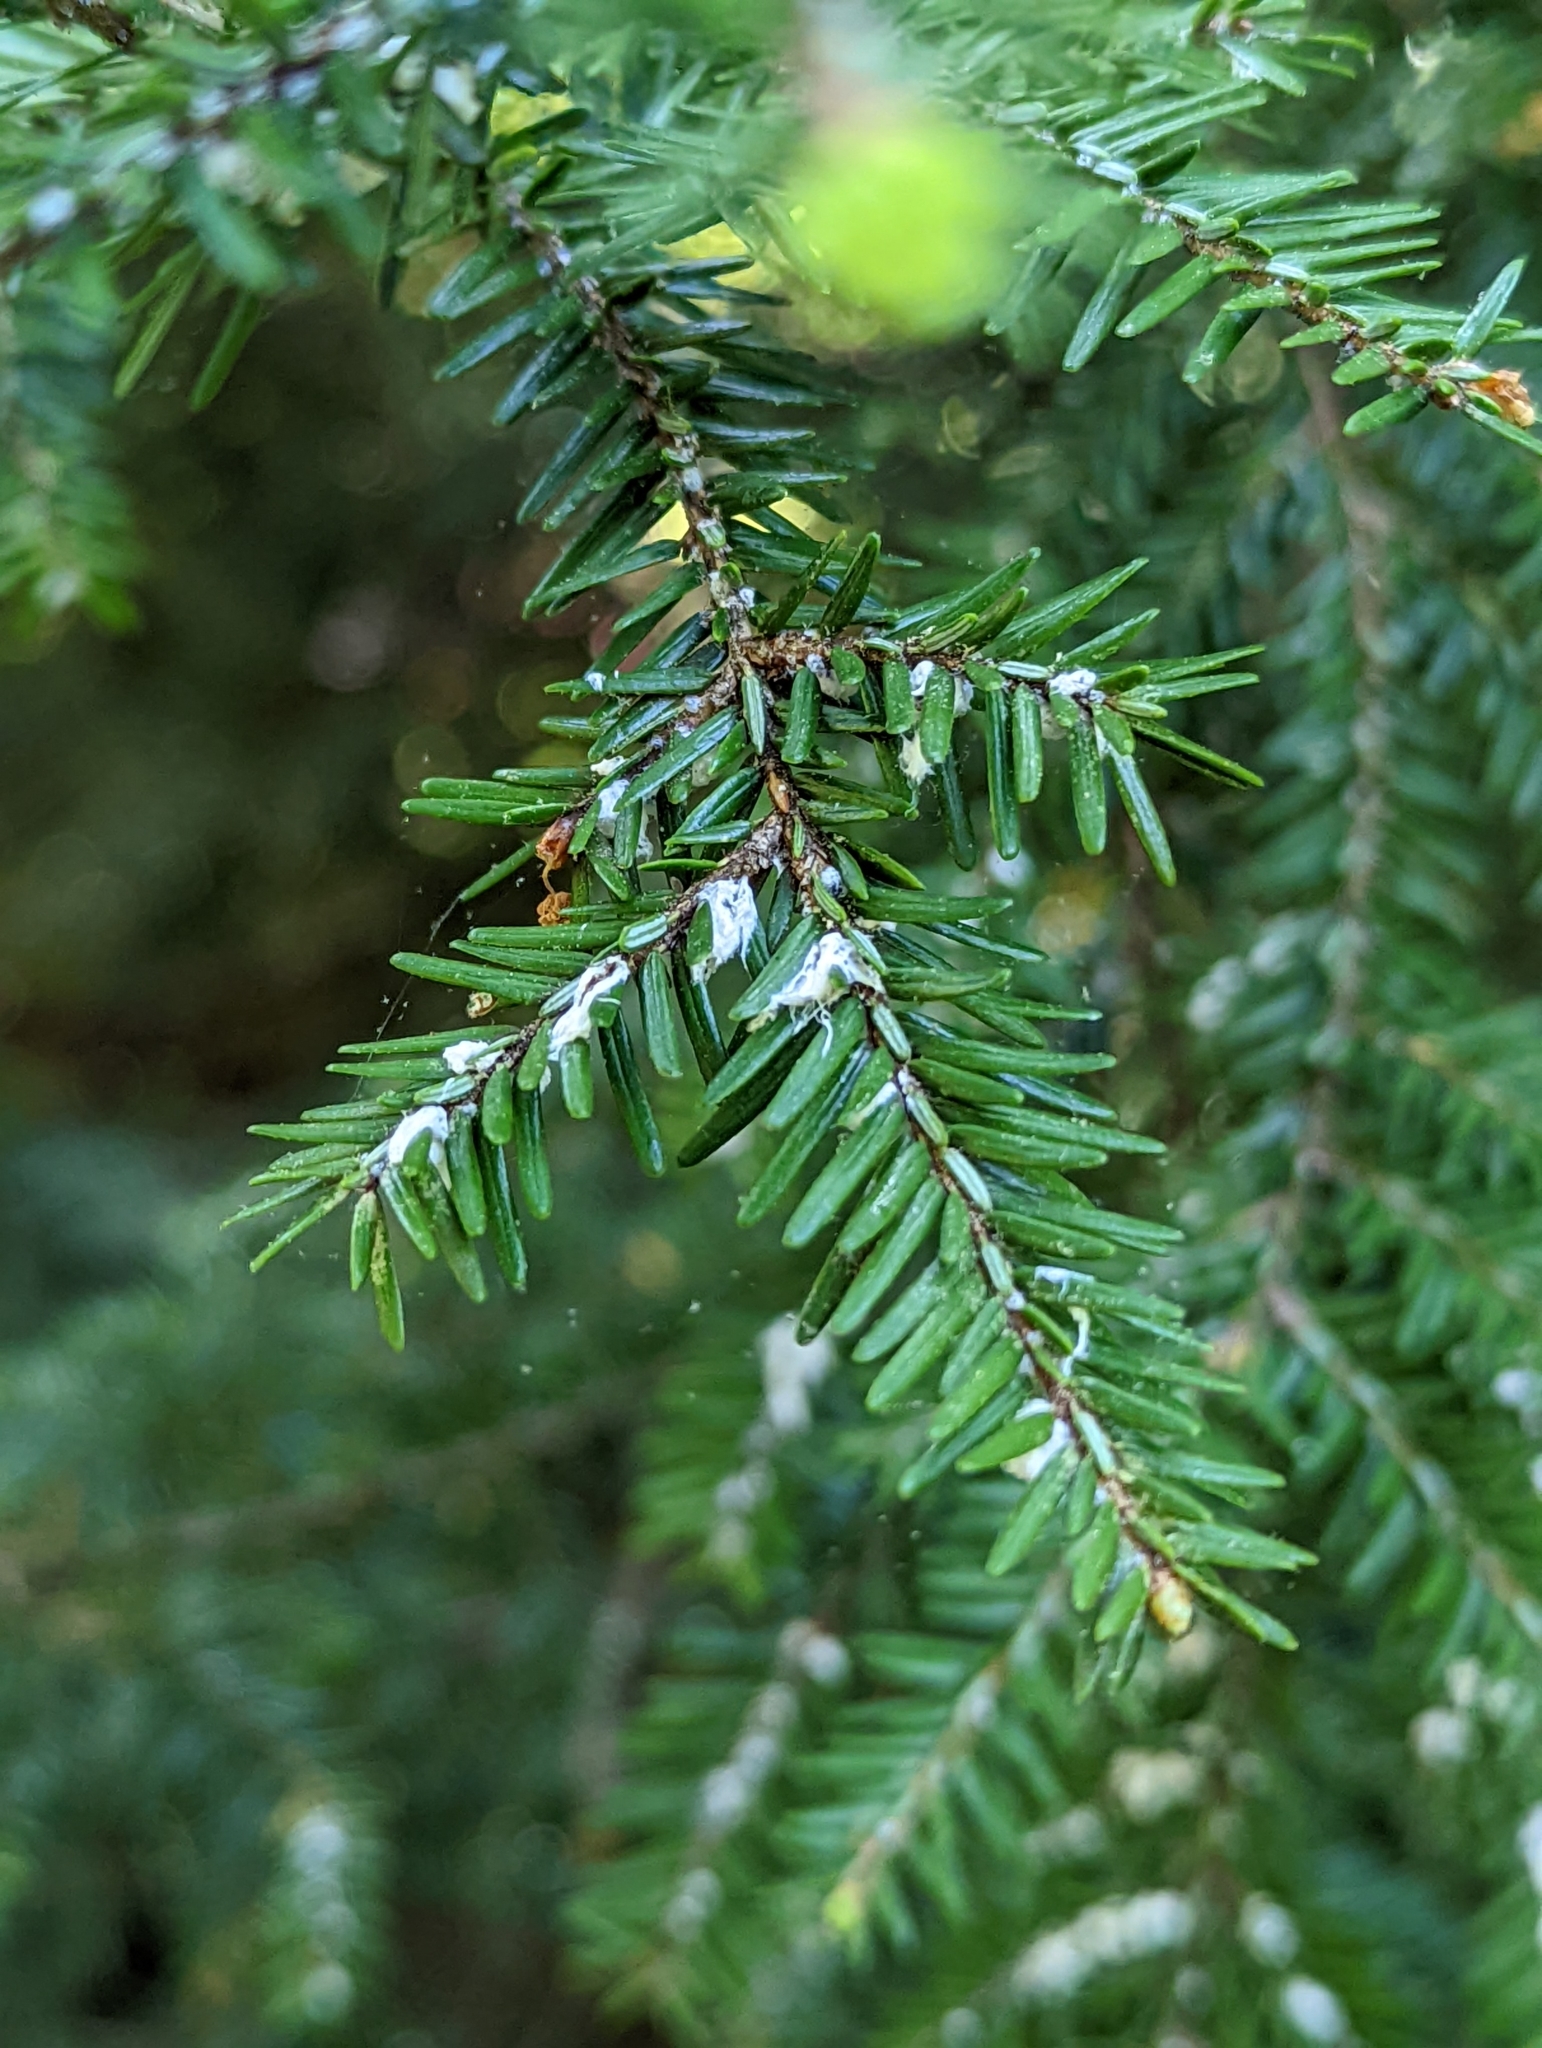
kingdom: Animalia
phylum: Arthropoda
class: Insecta
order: Hemiptera
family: Adelgidae
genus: Adelges
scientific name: Adelges tsugae
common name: Hemlock woolly adelgid
